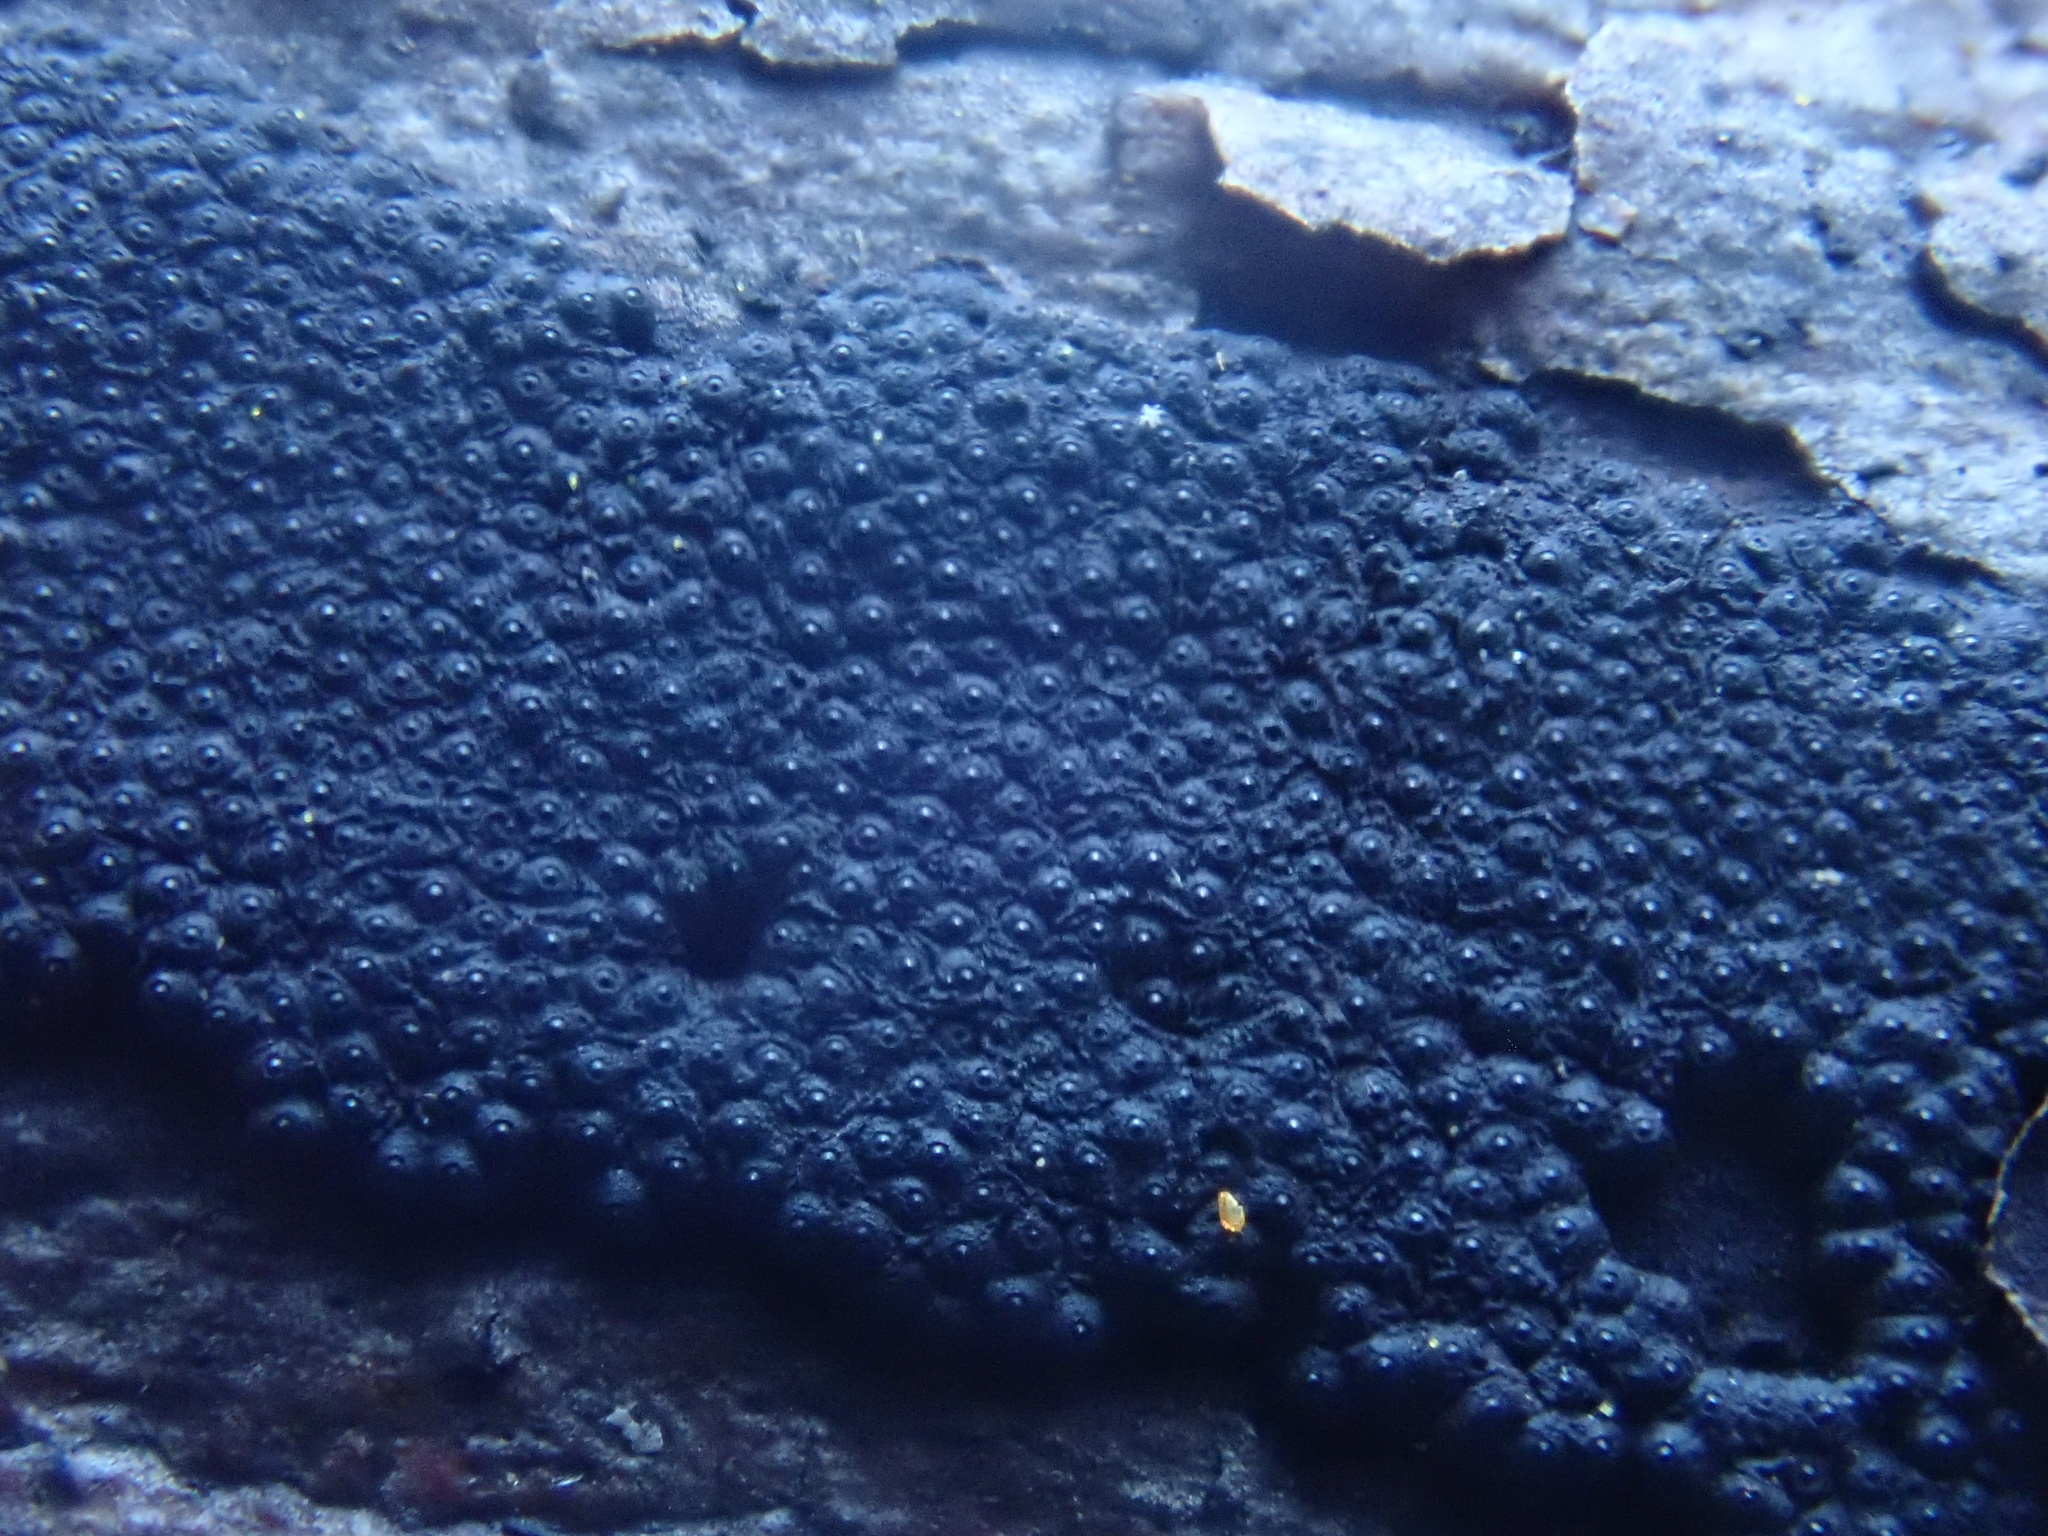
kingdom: Fungi
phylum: Ascomycota
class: Sordariomycetes
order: Xylariales
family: Hypoxylaceae
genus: Annulohypoxylon
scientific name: Annulohypoxylon bovei
